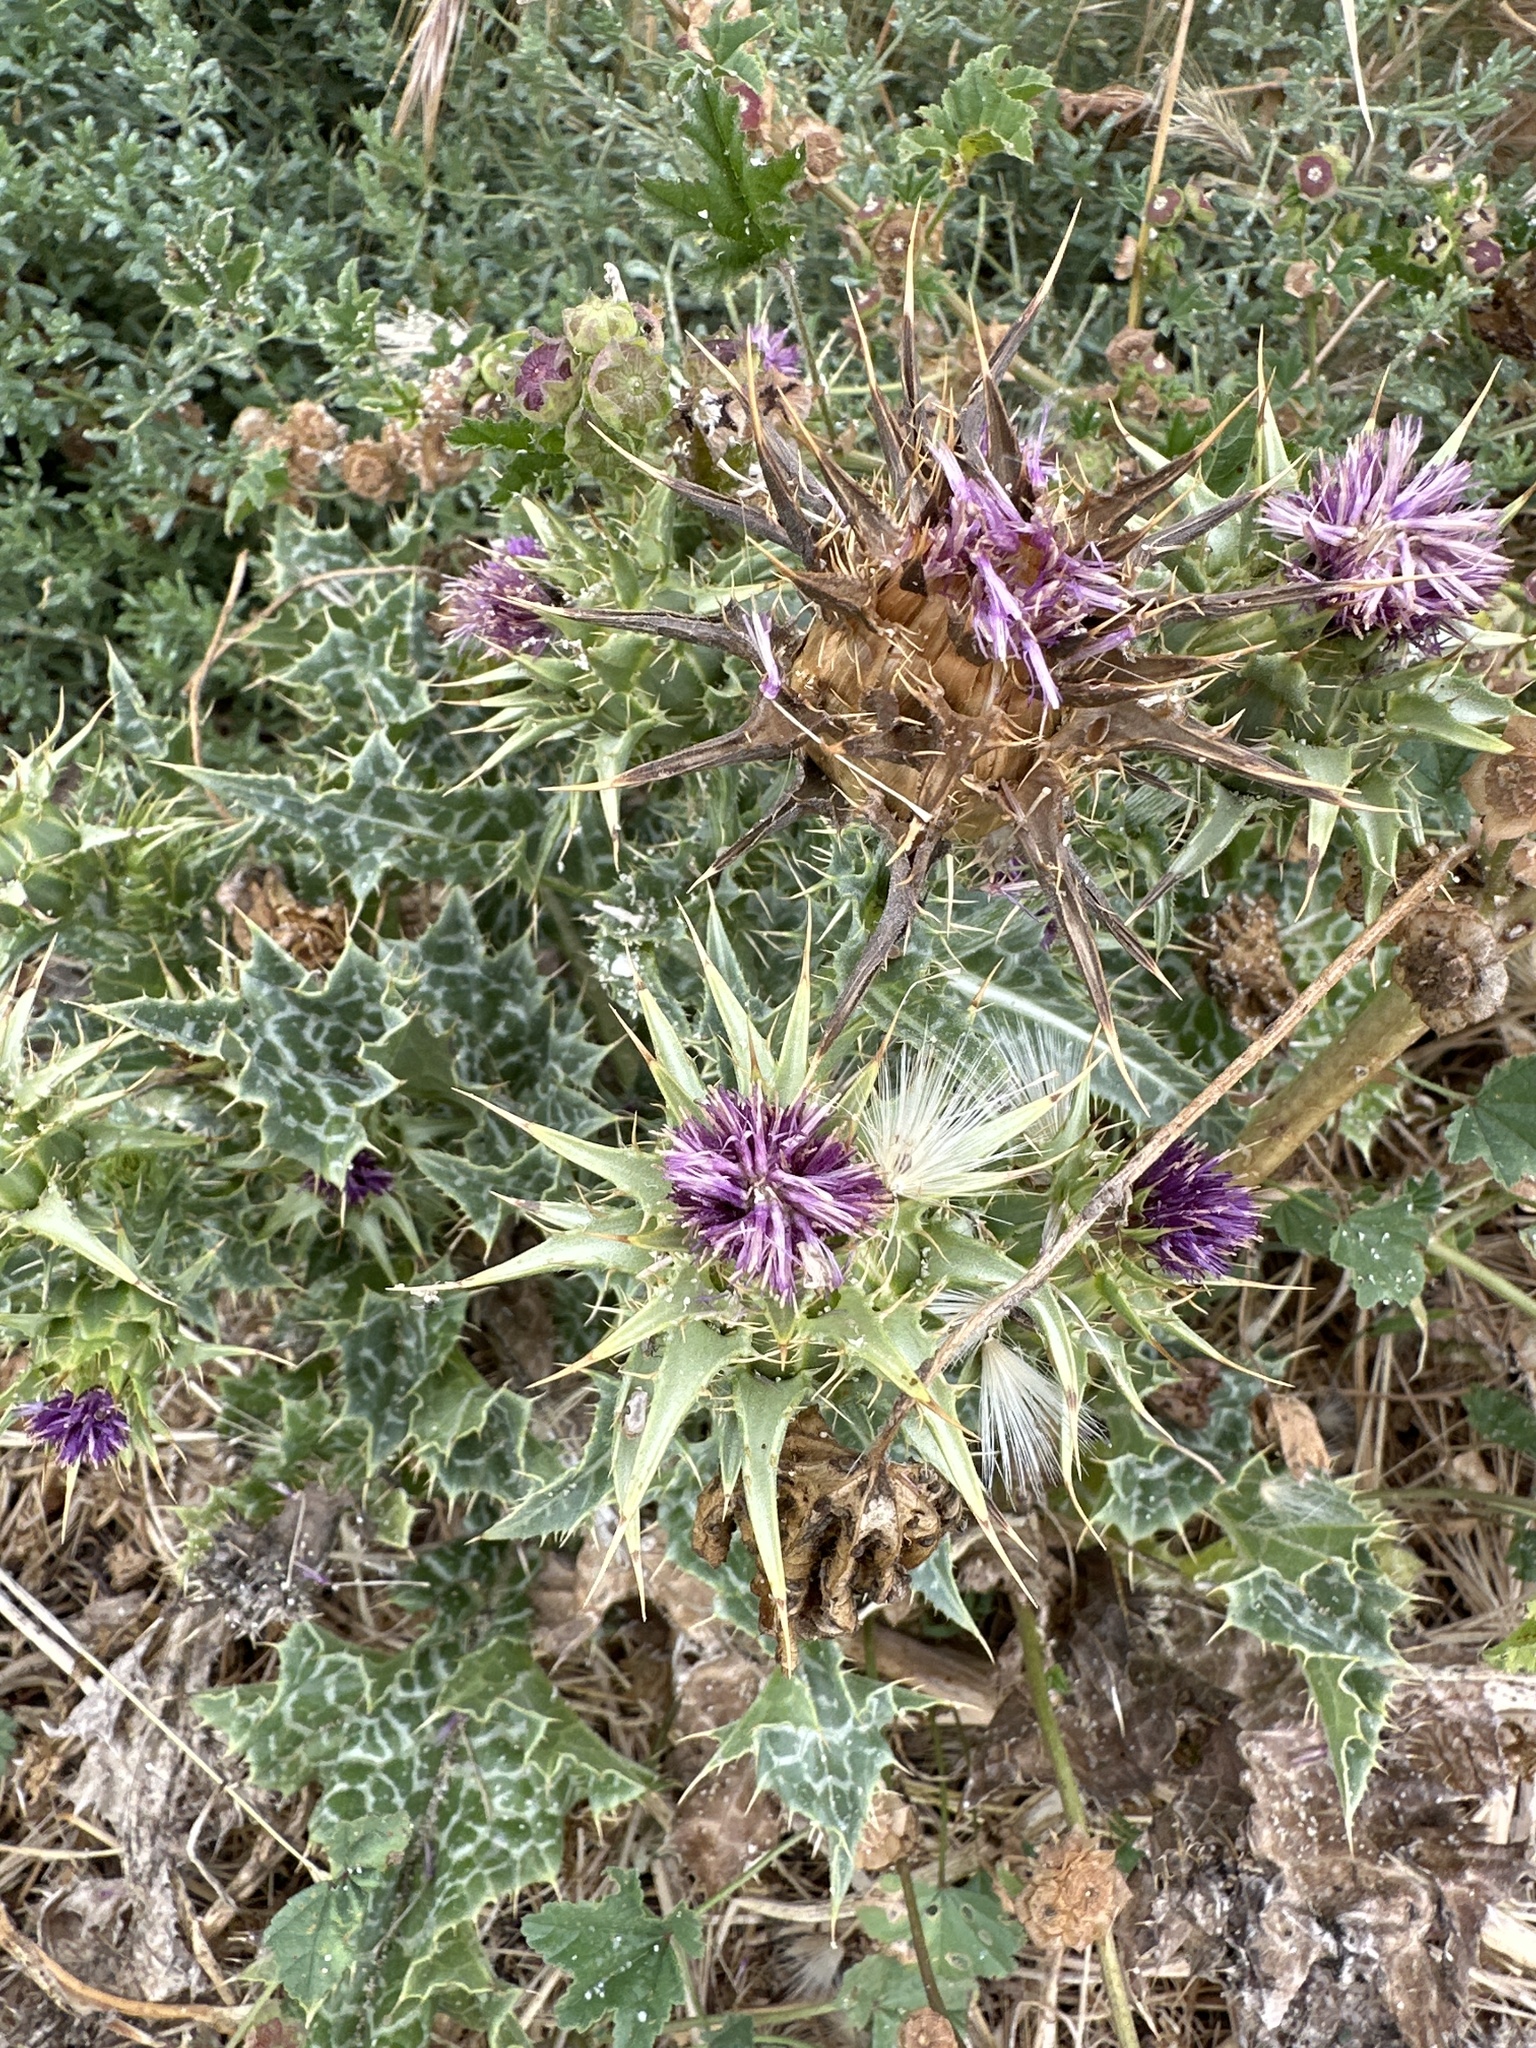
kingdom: Plantae
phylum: Tracheophyta
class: Magnoliopsida
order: Asterales
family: Asteraceae
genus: Silybum
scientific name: Silybum marianum
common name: Milk thistle
